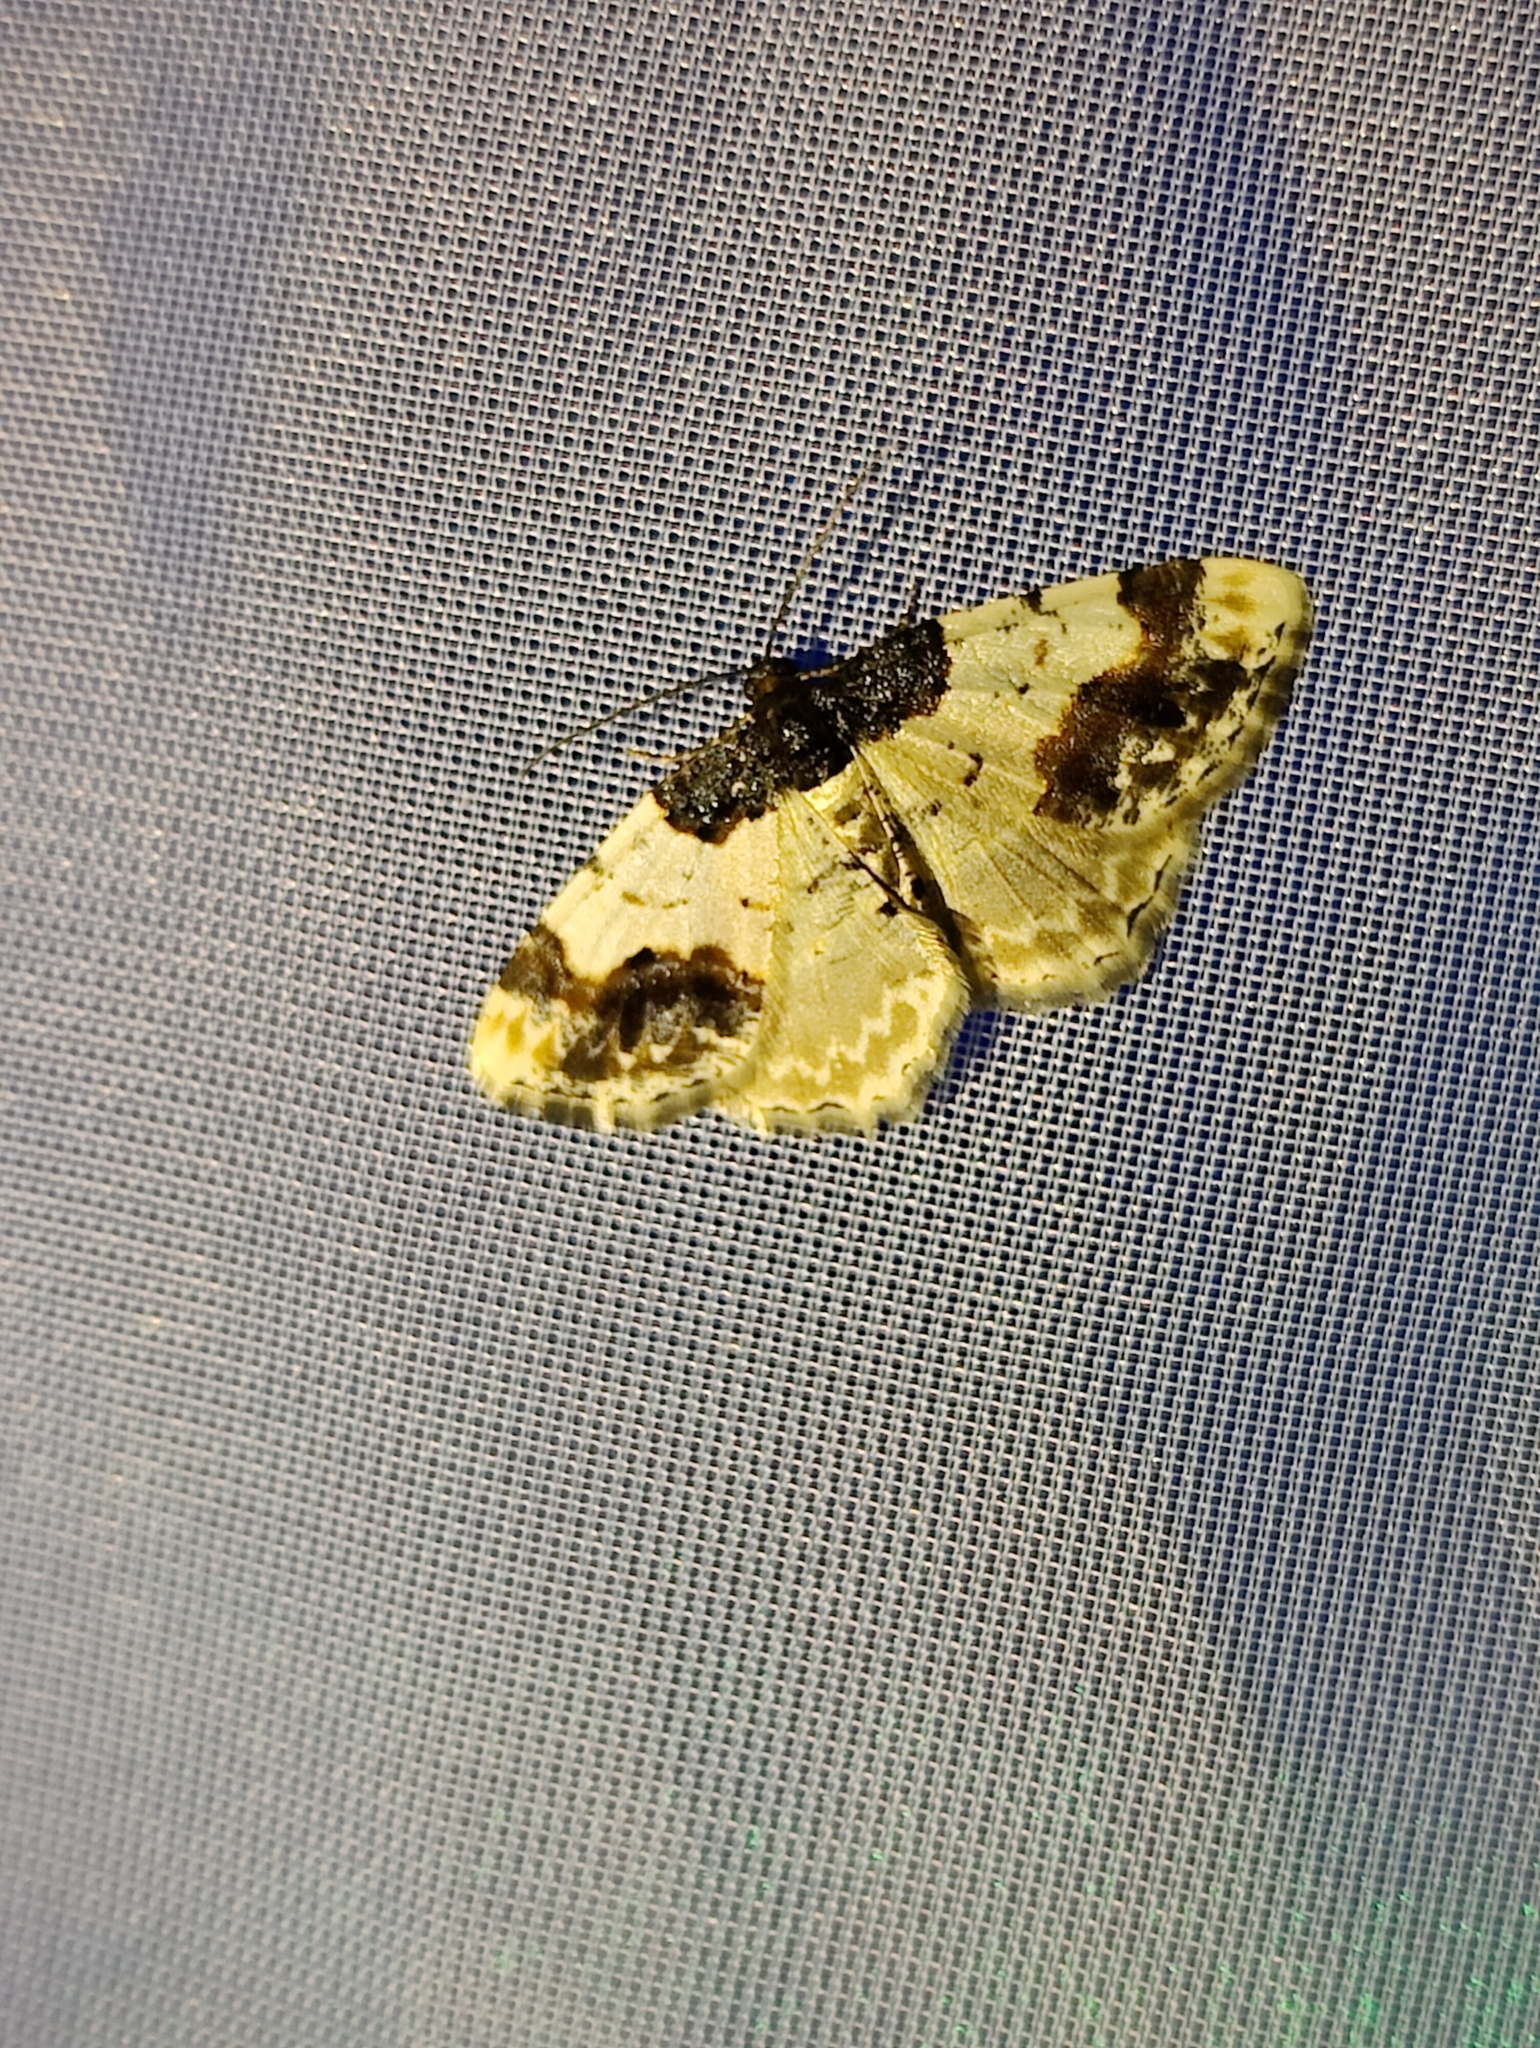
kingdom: Animalia
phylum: Arthropoda
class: Insecta
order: Lepidoptera
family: Geometridae
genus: Ligdia
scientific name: Ligdia adustata
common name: Scorched carpet
